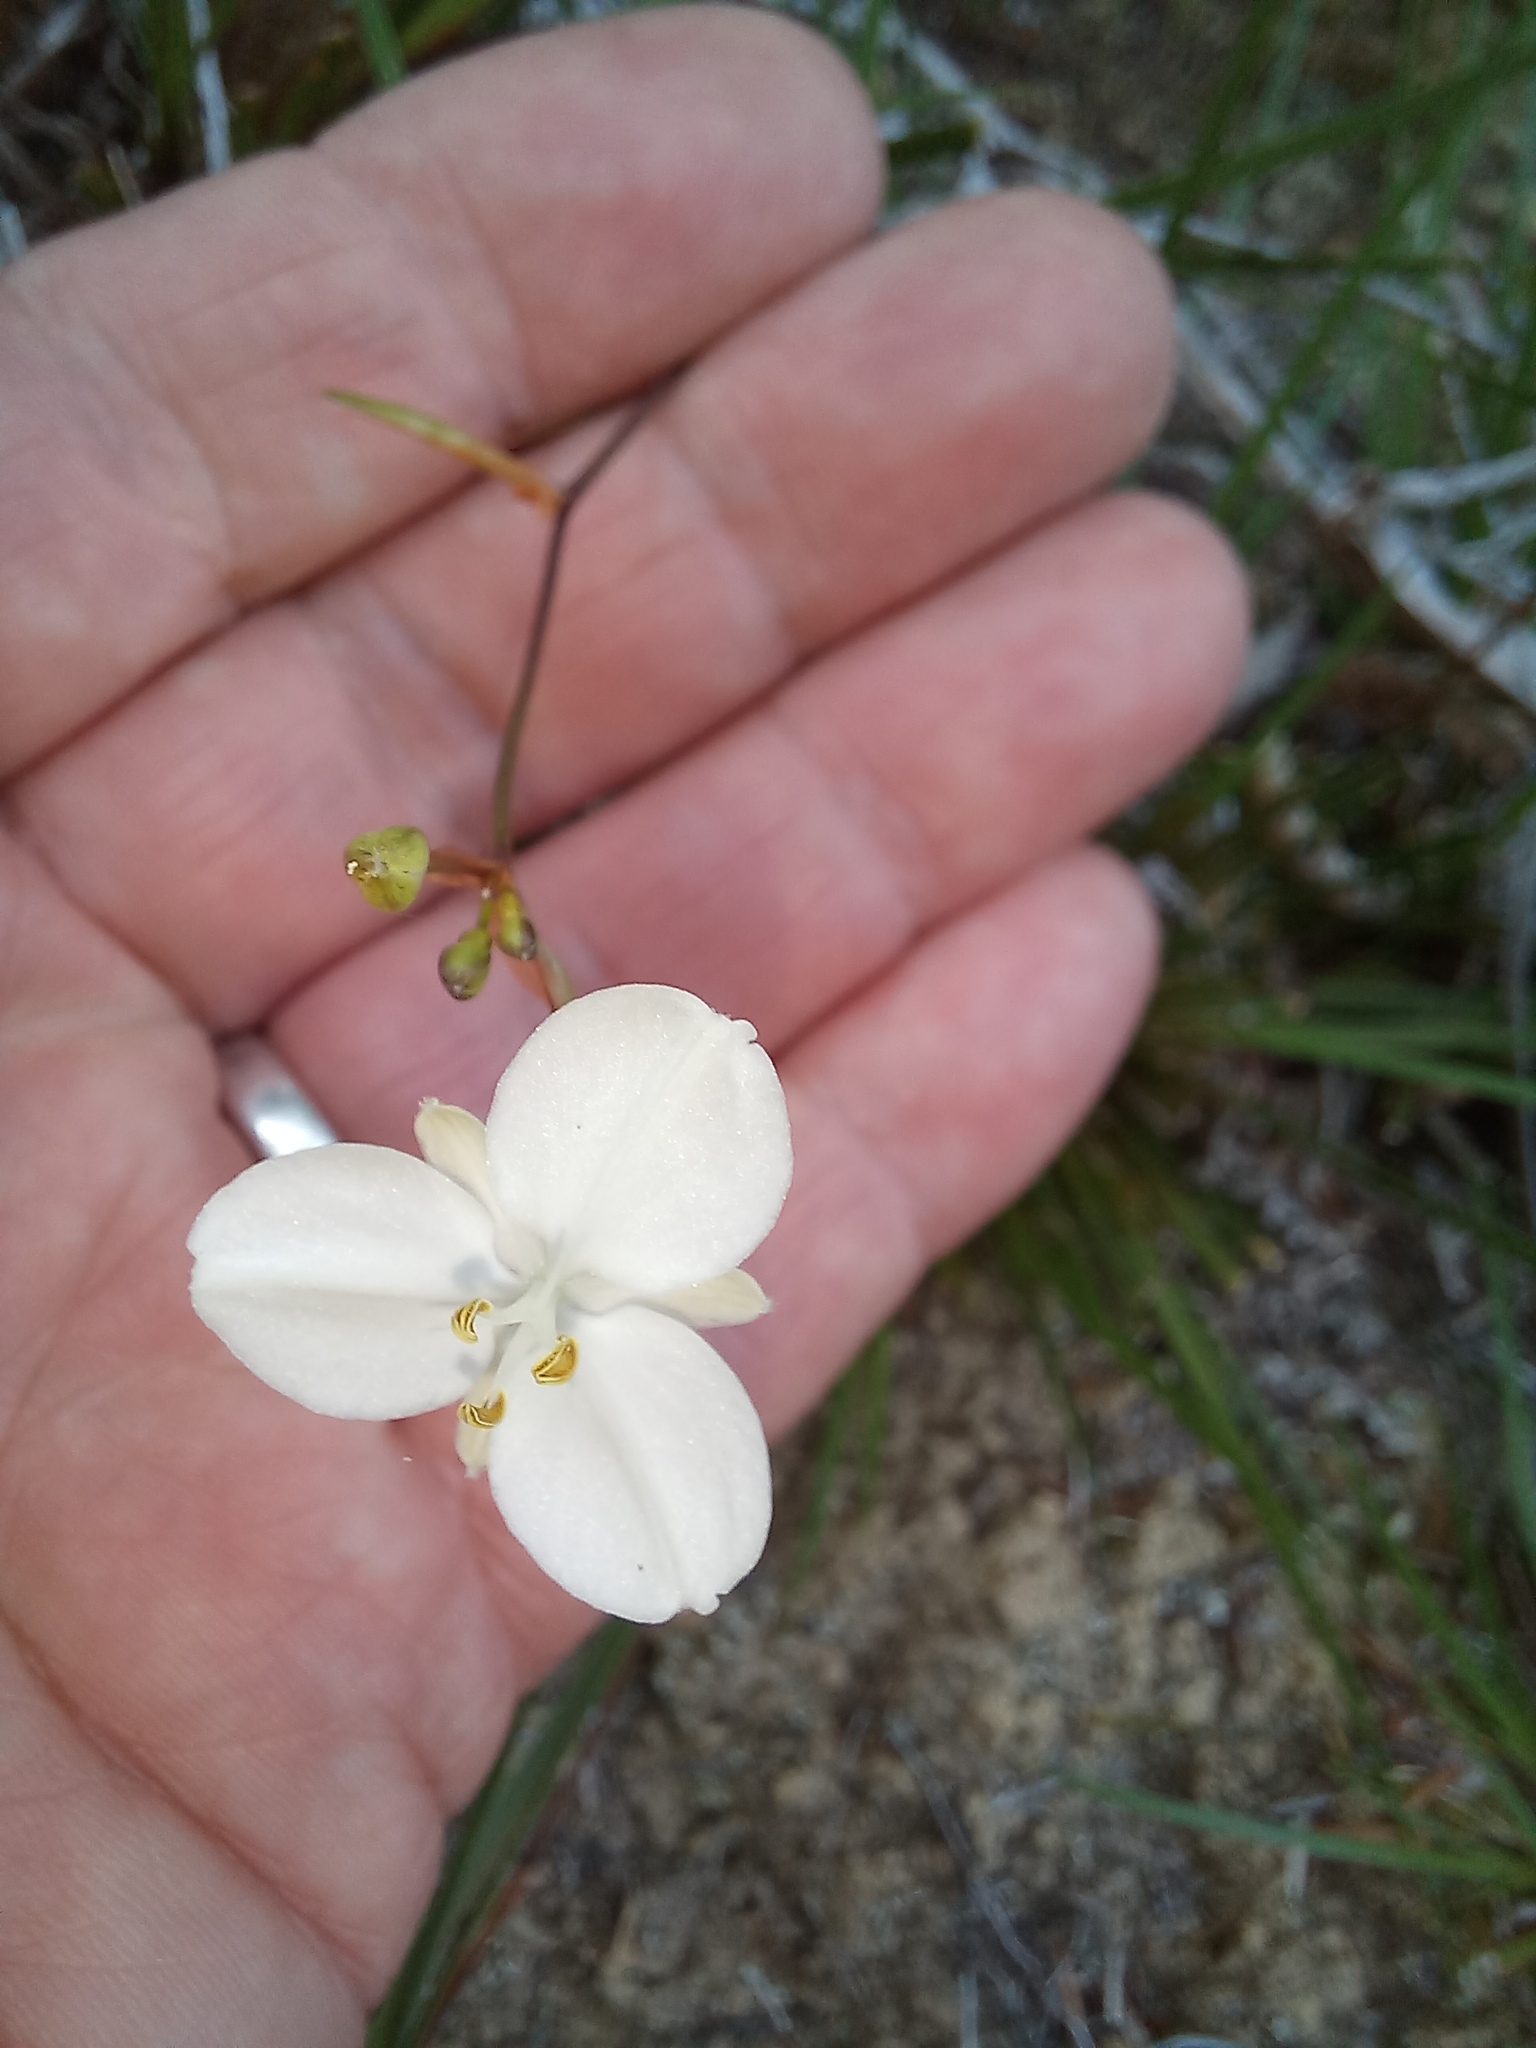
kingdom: Plantae
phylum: Tracheophyta
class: Liliopsida
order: Asparagales
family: Iridaceae
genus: Libertia
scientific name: Libertia ixioides
